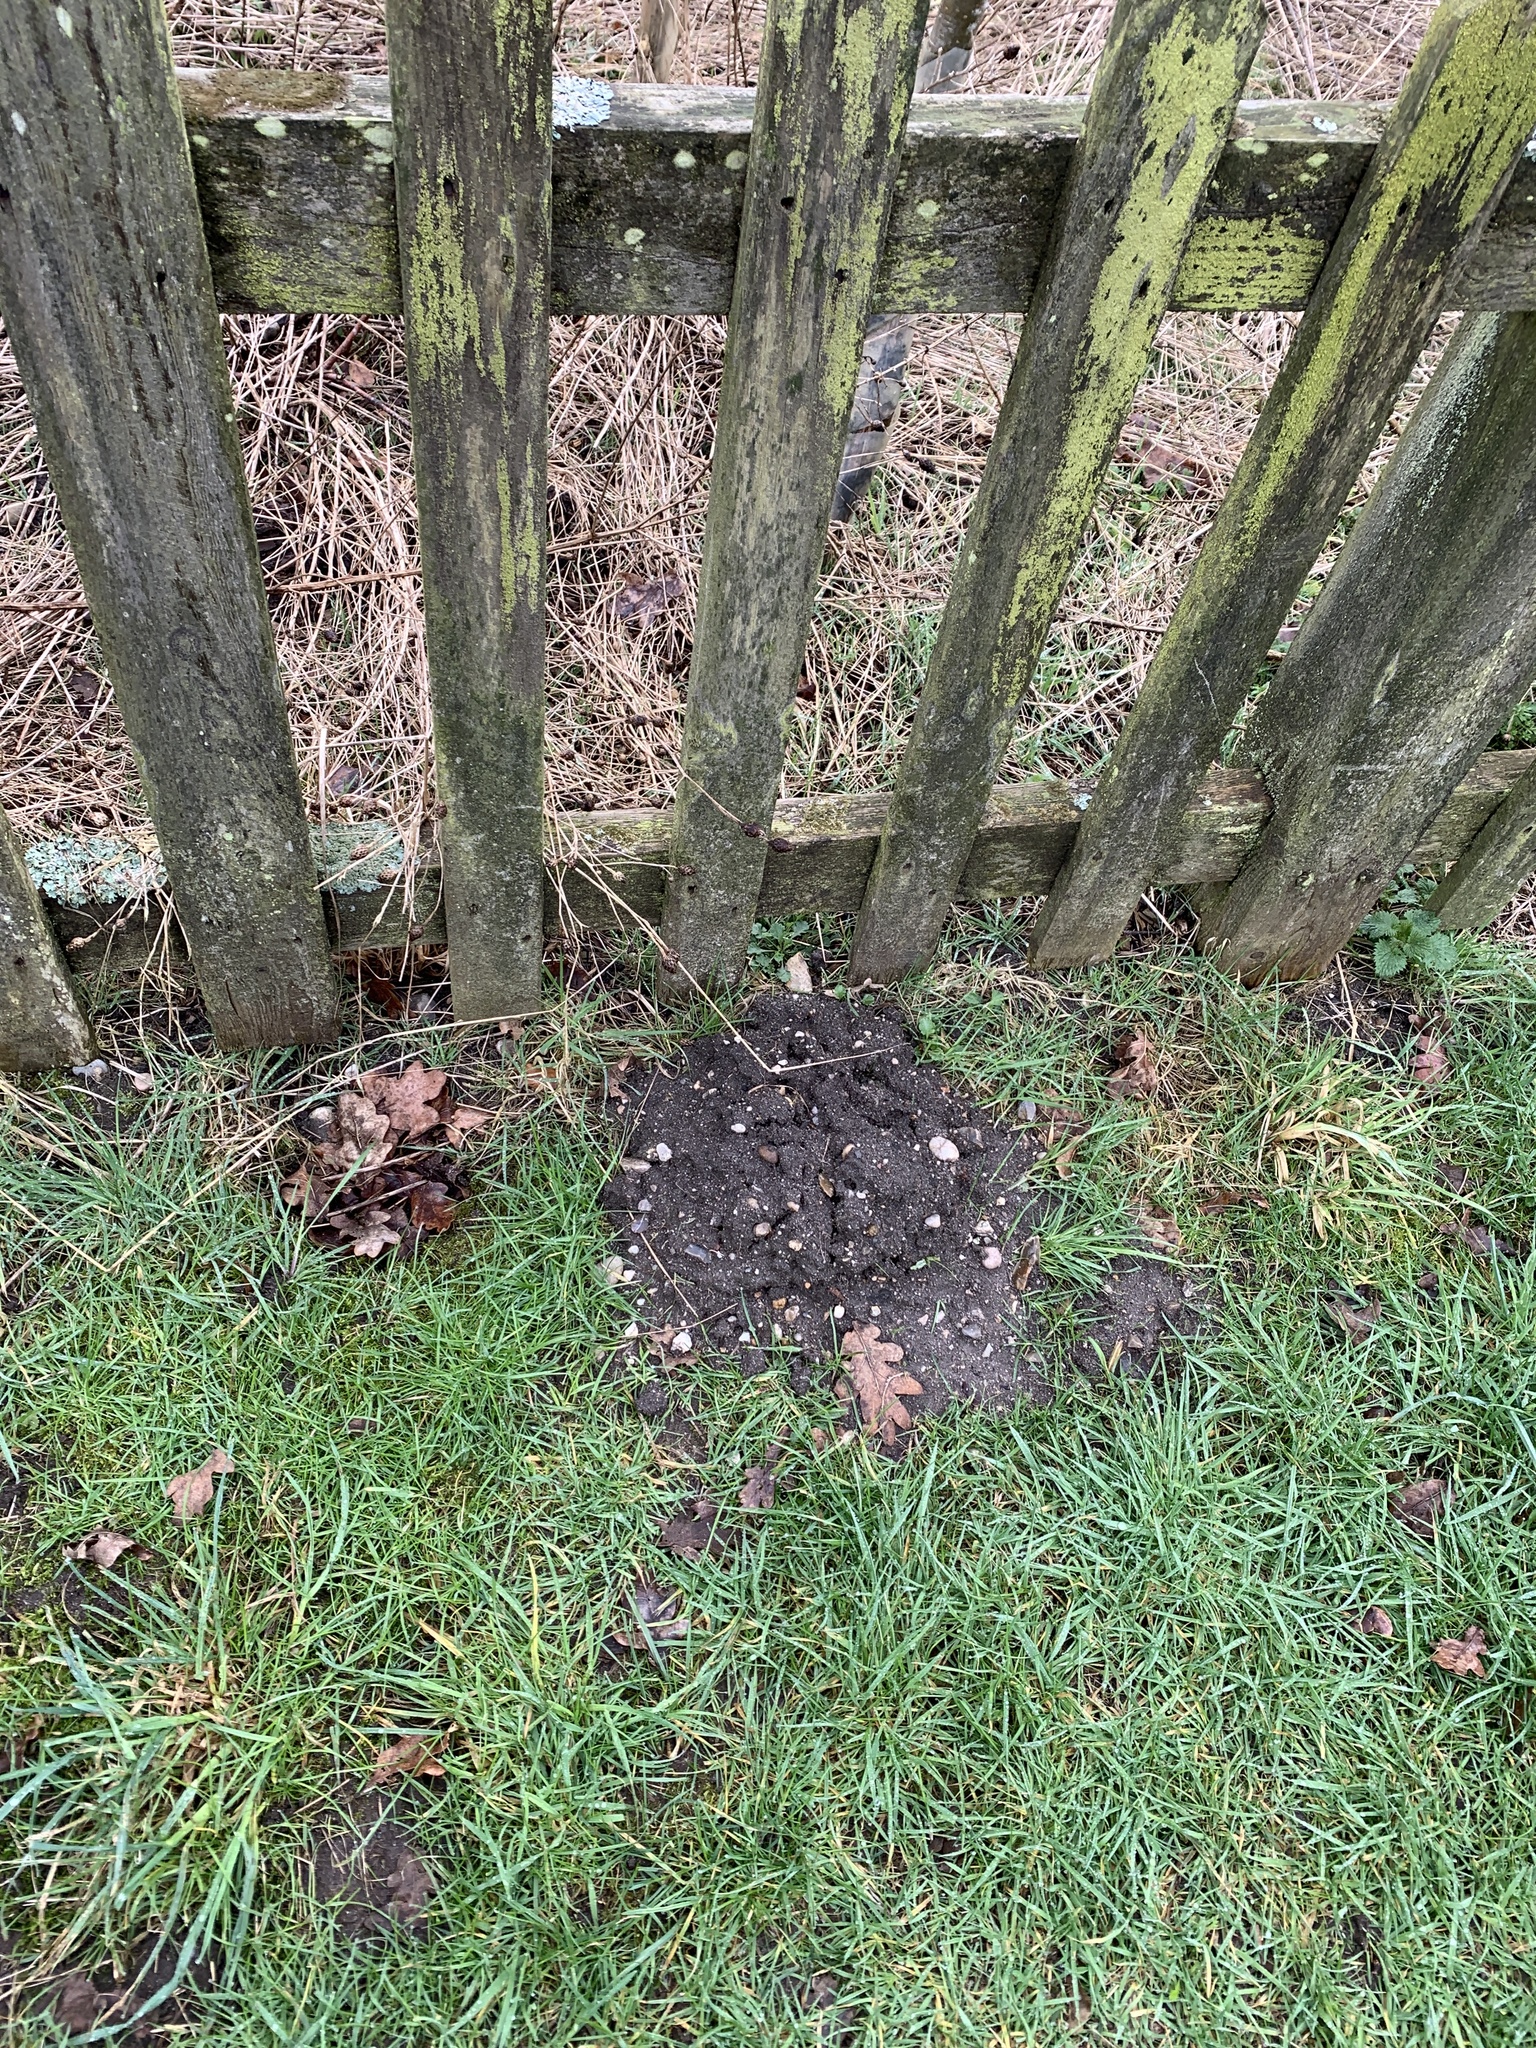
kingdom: Animalia
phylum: Chordata
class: Mammalia
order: Soricomorpha
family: Talpidae
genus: Talpa
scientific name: Talpa europaea
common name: European mole
